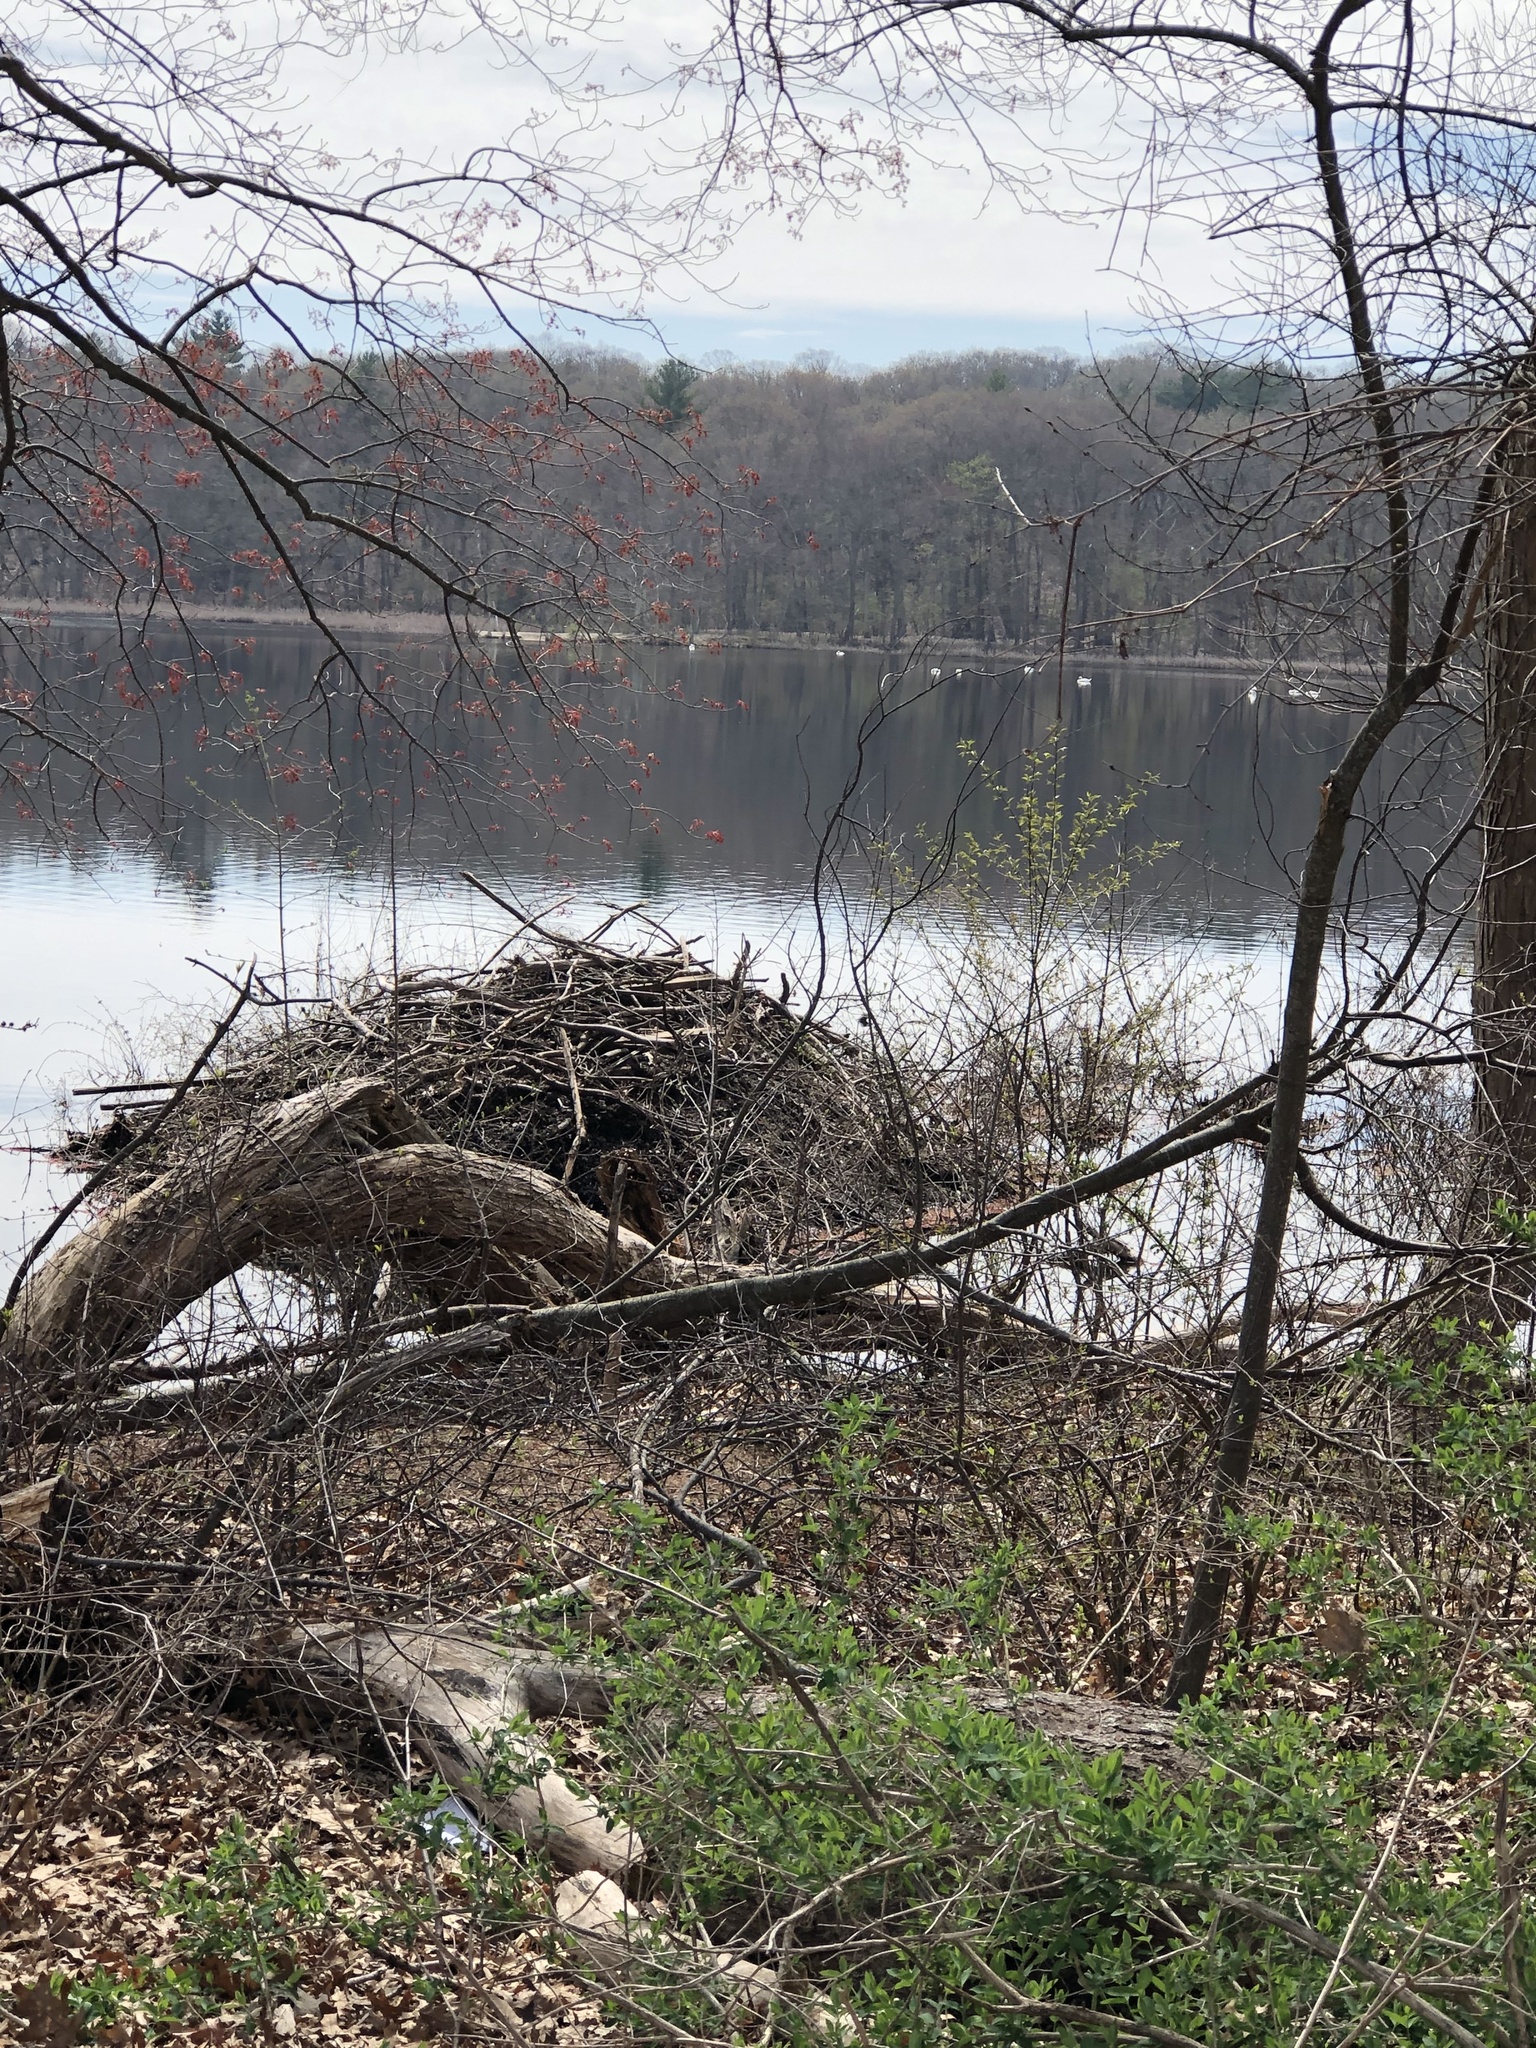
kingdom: Animalia
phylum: Chordata
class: Mammalia
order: Rodentia
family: Castoridae
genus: Castor
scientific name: Castor canadensis
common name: American beaver
